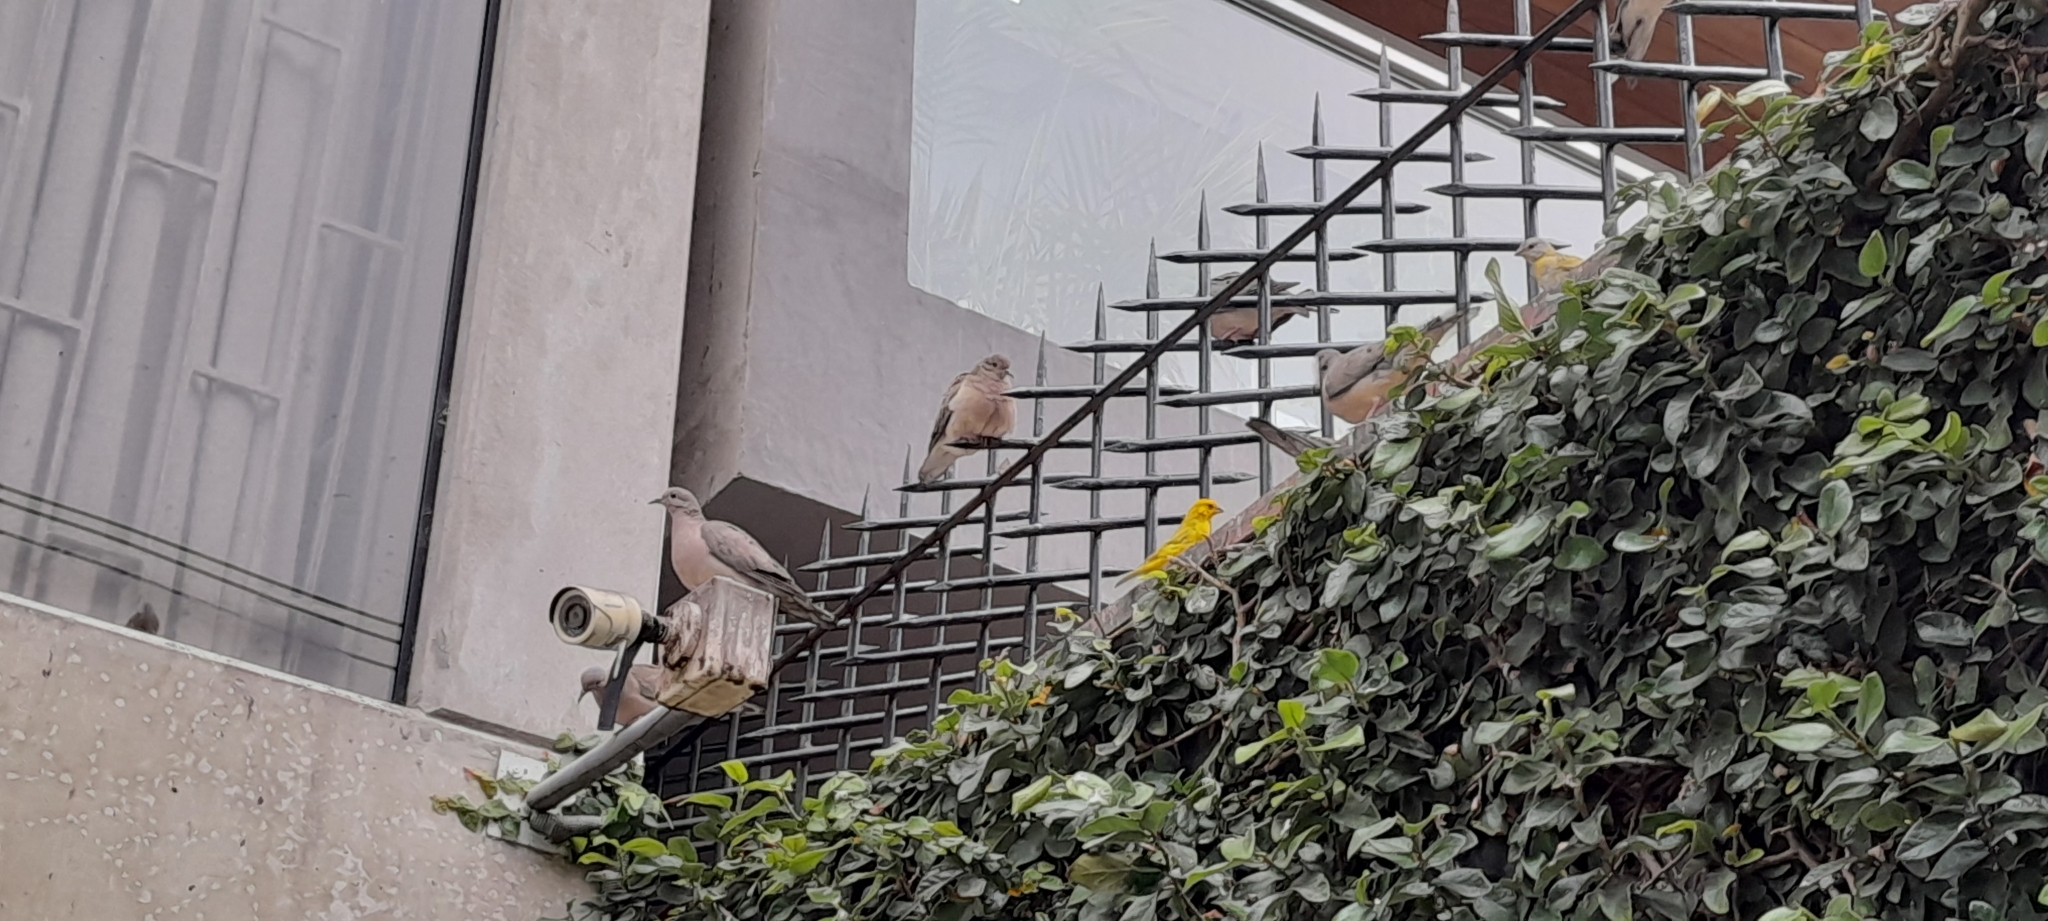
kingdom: Animalia
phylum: Chordata
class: Aves
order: Columbiformes
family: Columbidae
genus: Zenaida
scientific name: Zenaida auriculata
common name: Eared dove
